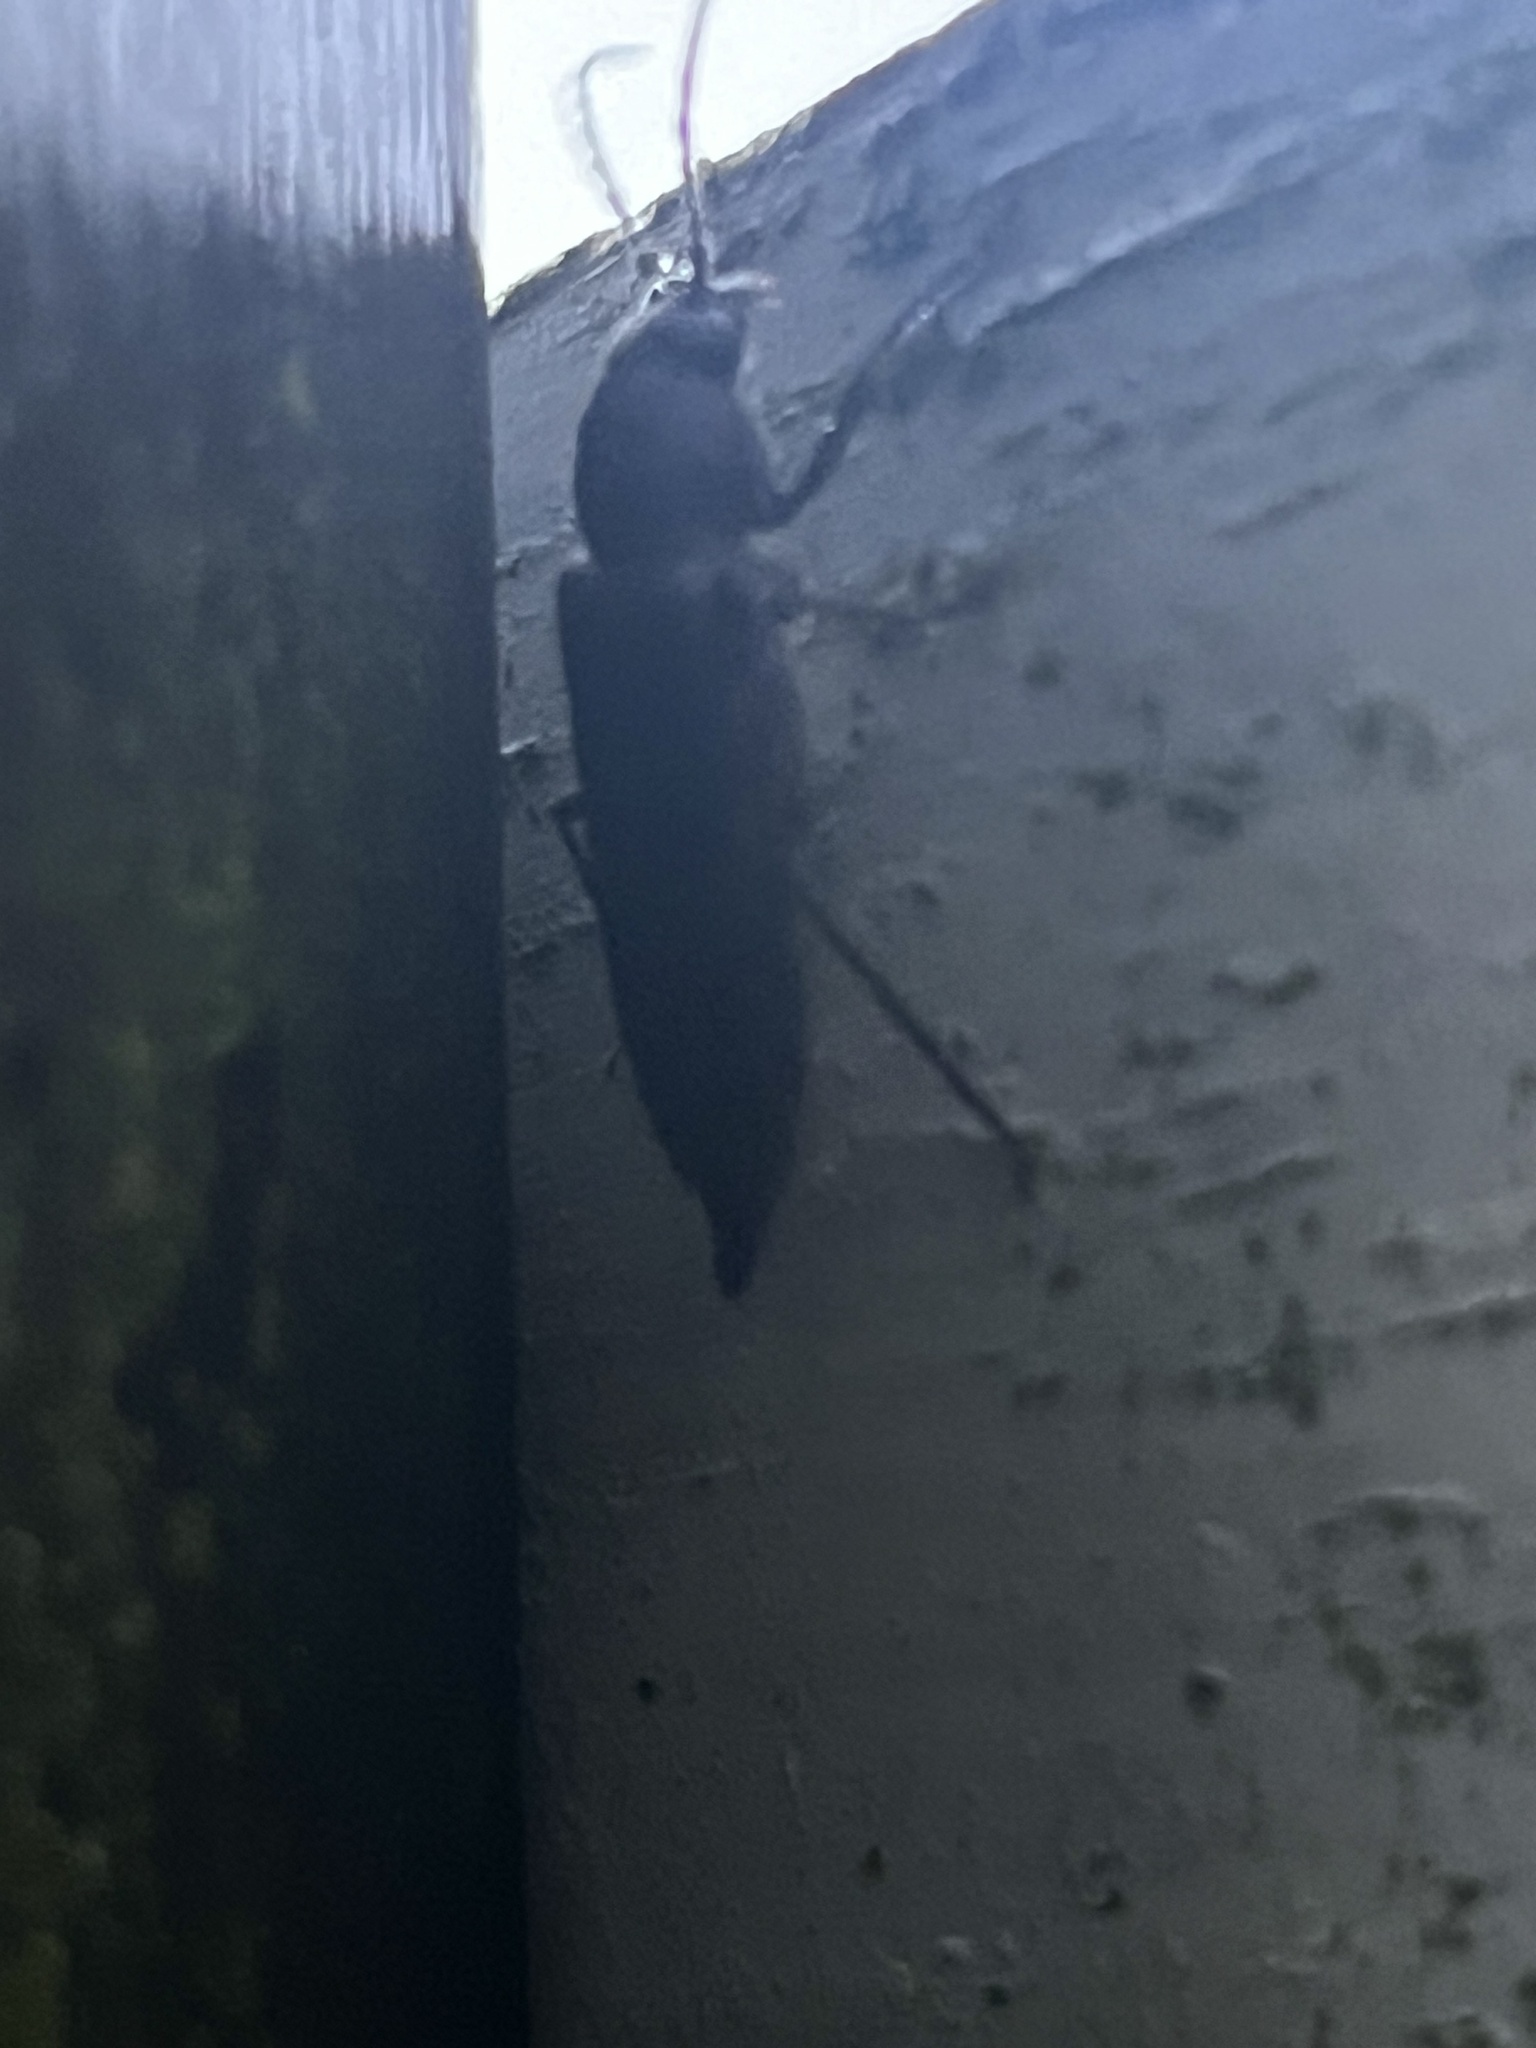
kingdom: Animalia
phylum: Arthropoda
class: Insecta
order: Coleoptera
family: Cerambycidae
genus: Arhopalus
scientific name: Arhopalus ferus
